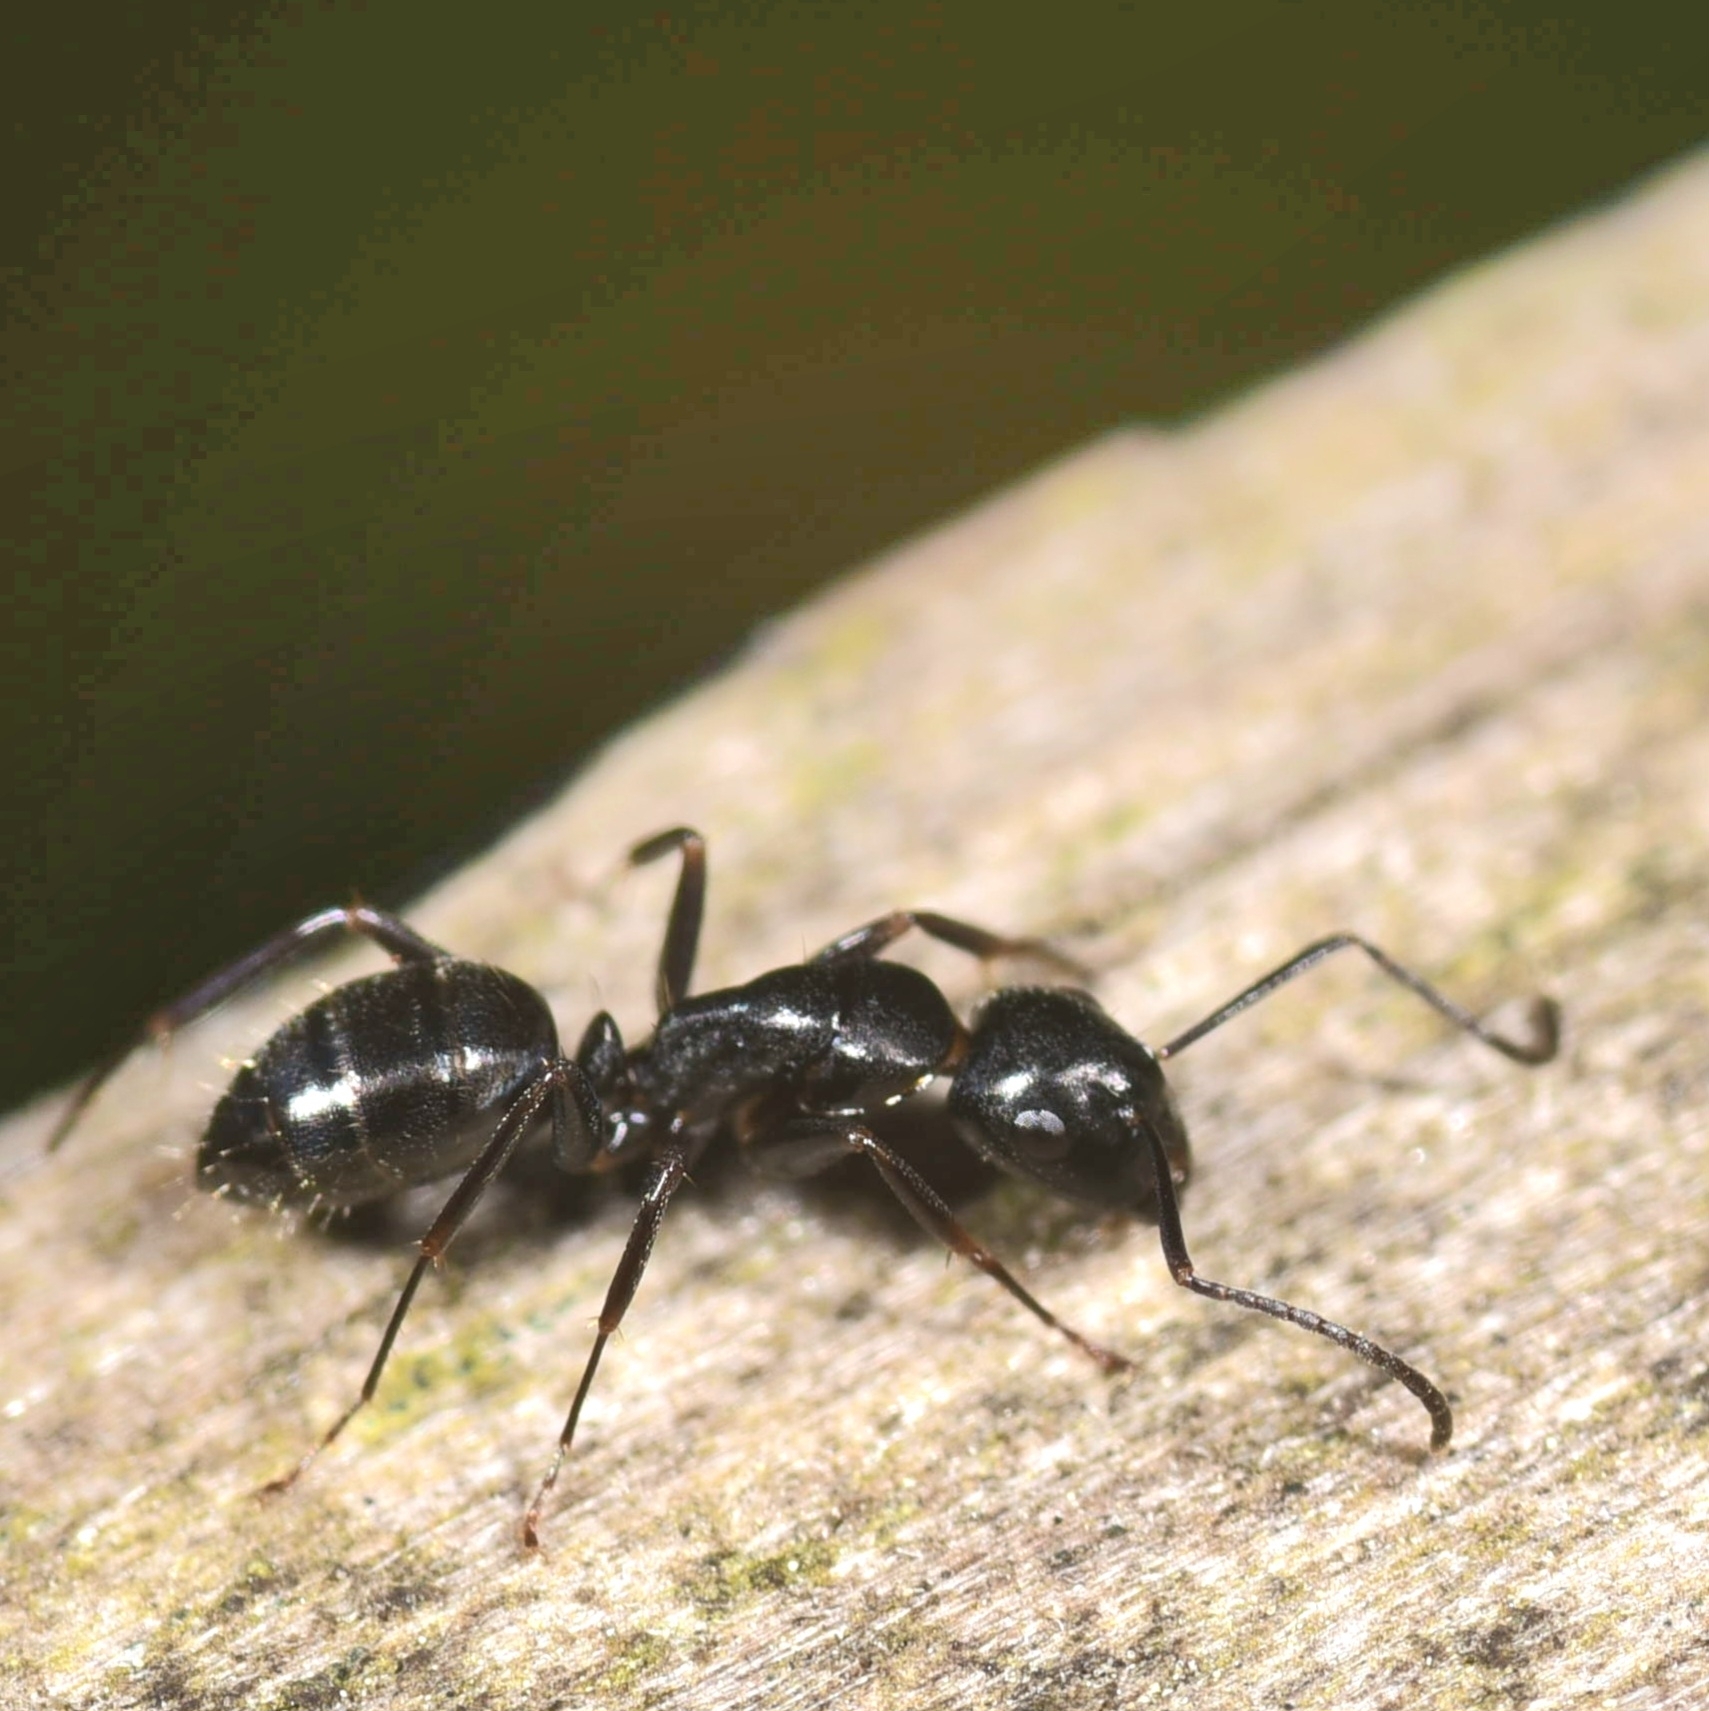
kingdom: Animalia
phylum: Arthropoda
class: Insecta
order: Hymenoptera
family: Formicidae
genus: Camponotus
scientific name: Camponotus nearcticus
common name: Smaller carpenter ant
